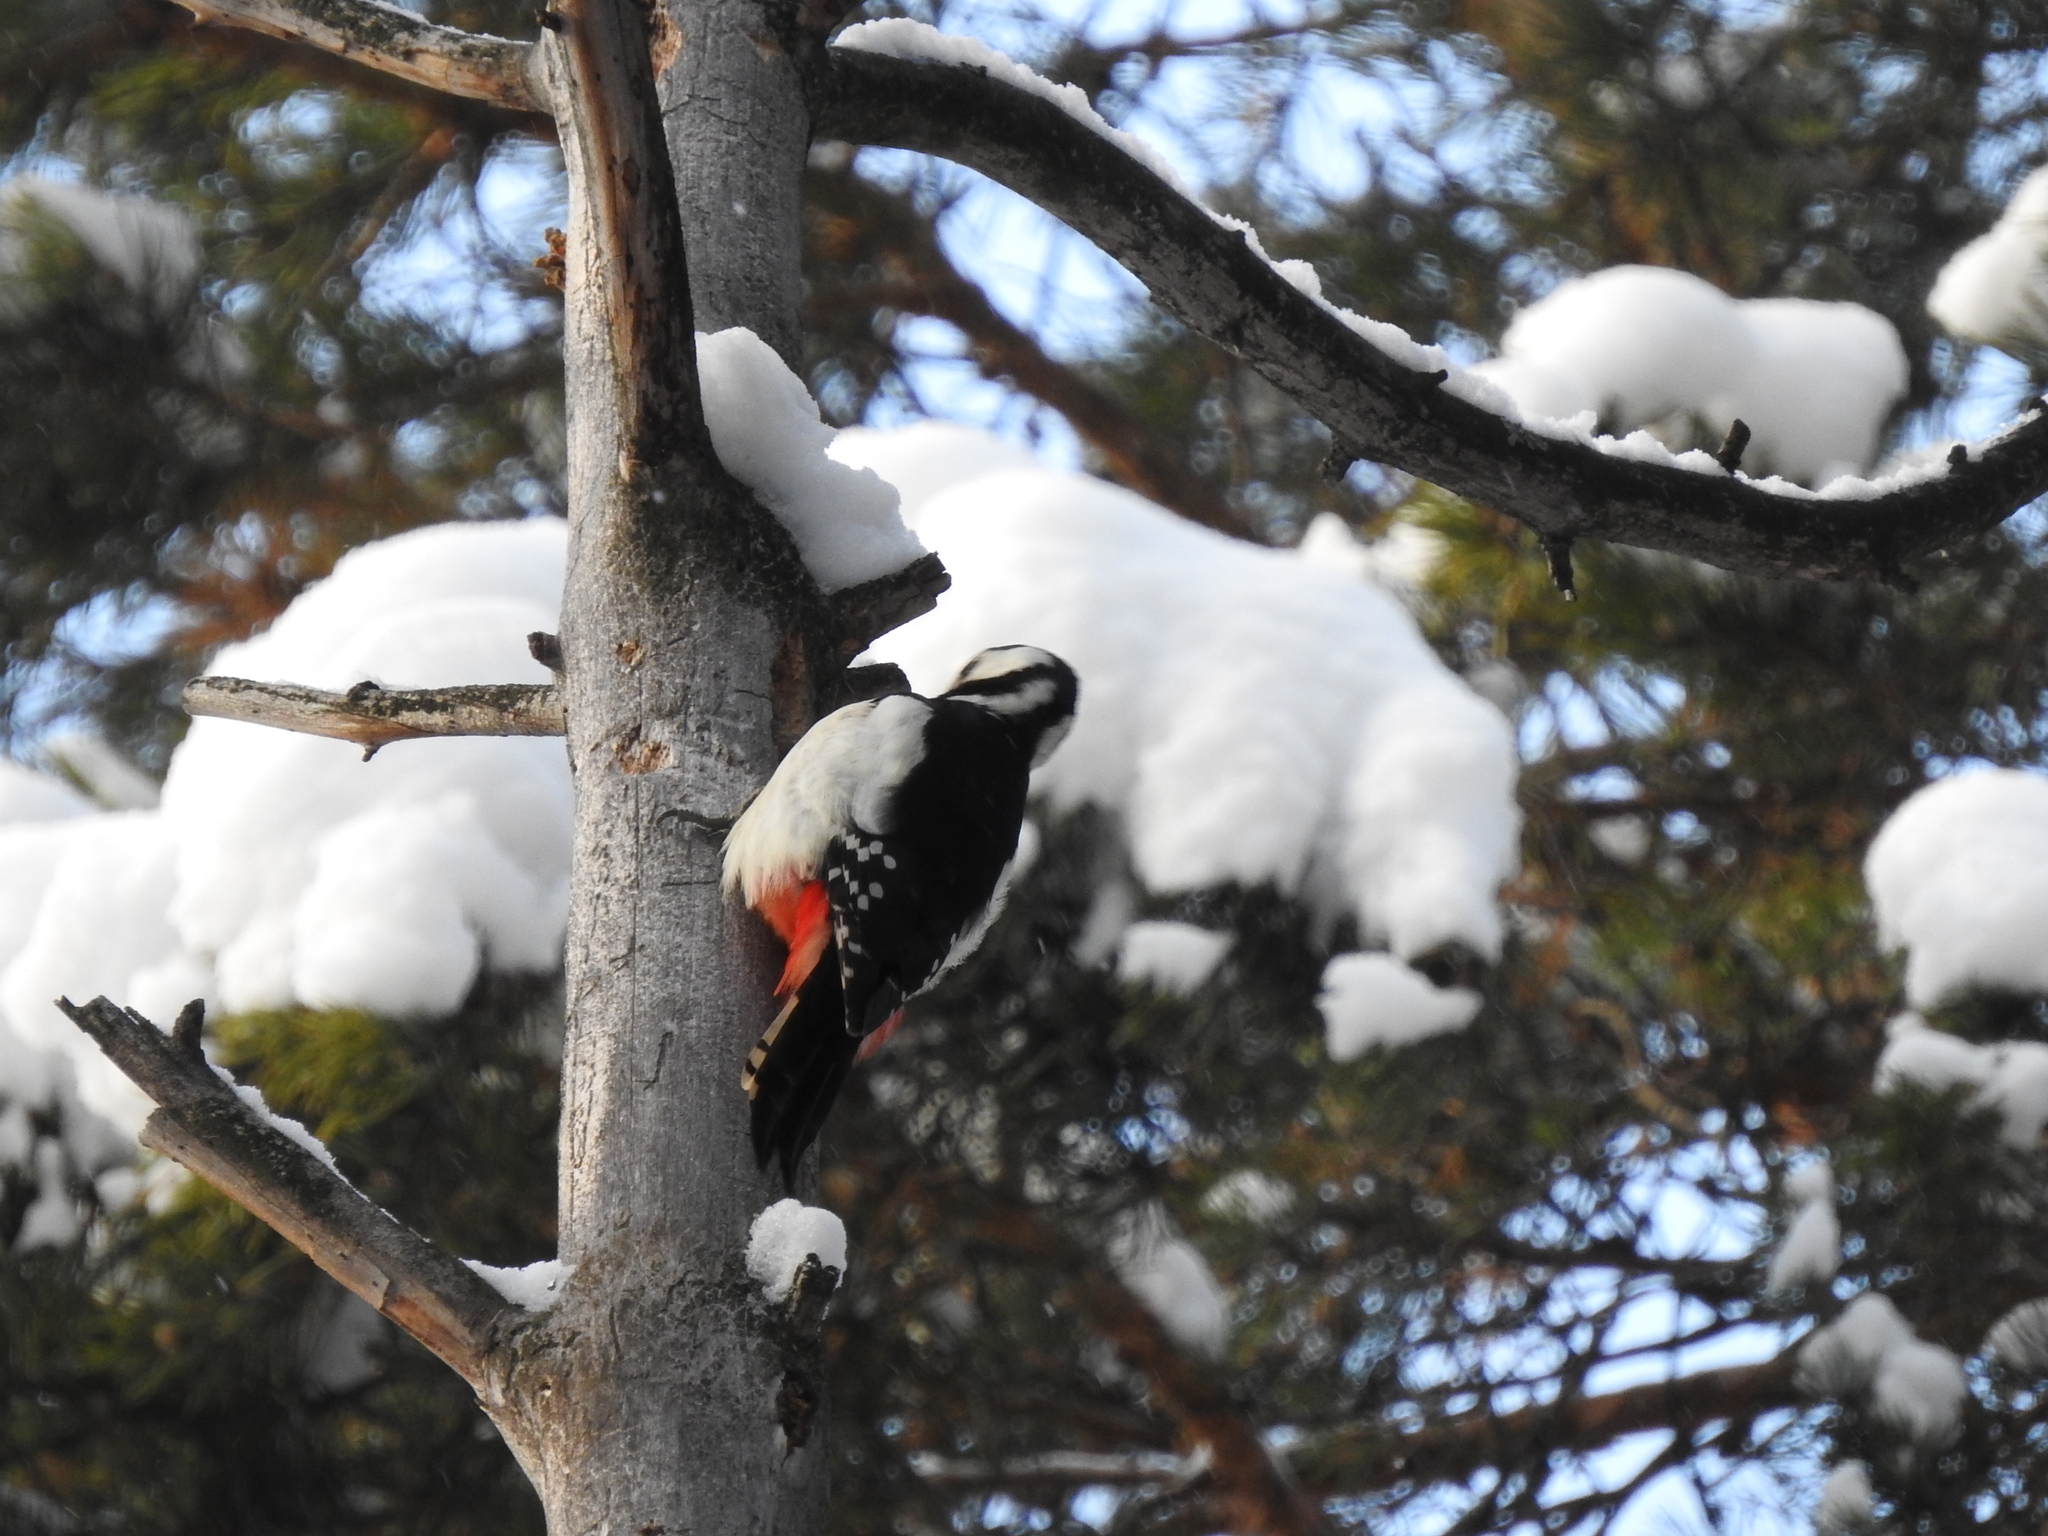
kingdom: Animalia
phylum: Chordata
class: Aves
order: Piciformes
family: Picidae
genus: Dendrocopos
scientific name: Dendrocopos major
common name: Great spotted woodpecker
